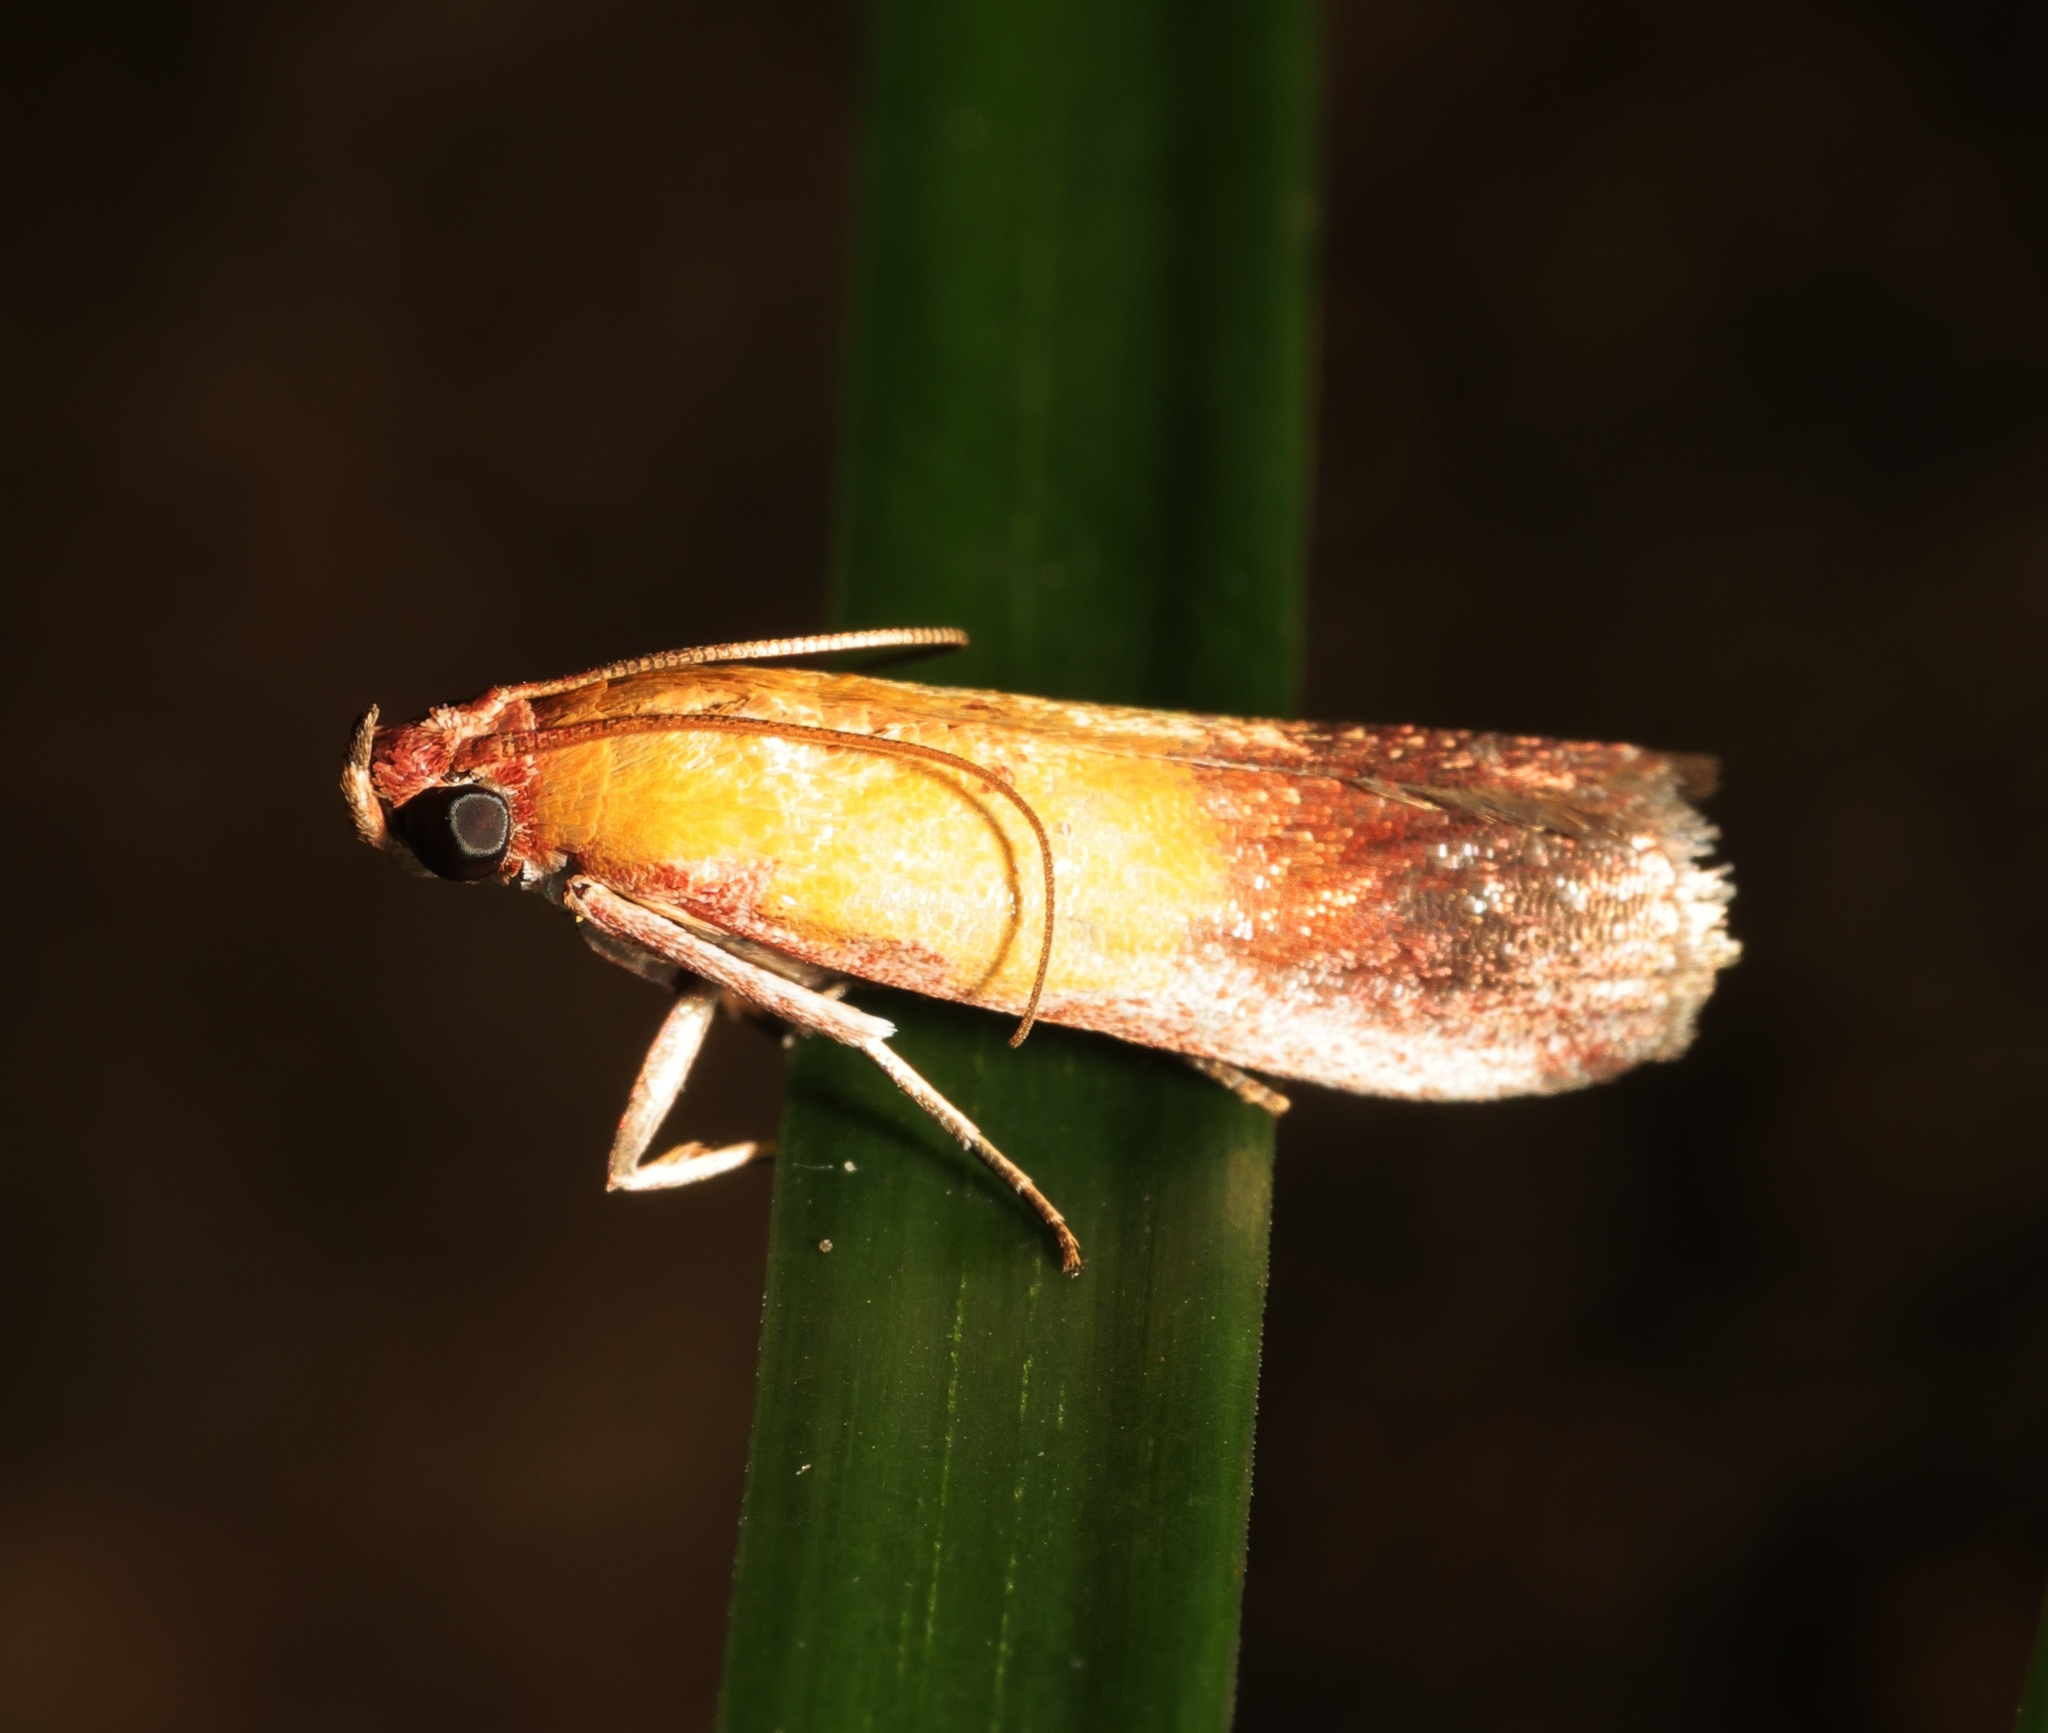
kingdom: Animalia
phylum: Arthropoda
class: Insecta
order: Lepidoptera
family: Pyralidae
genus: Piesmopoda
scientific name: Piesmopoda
